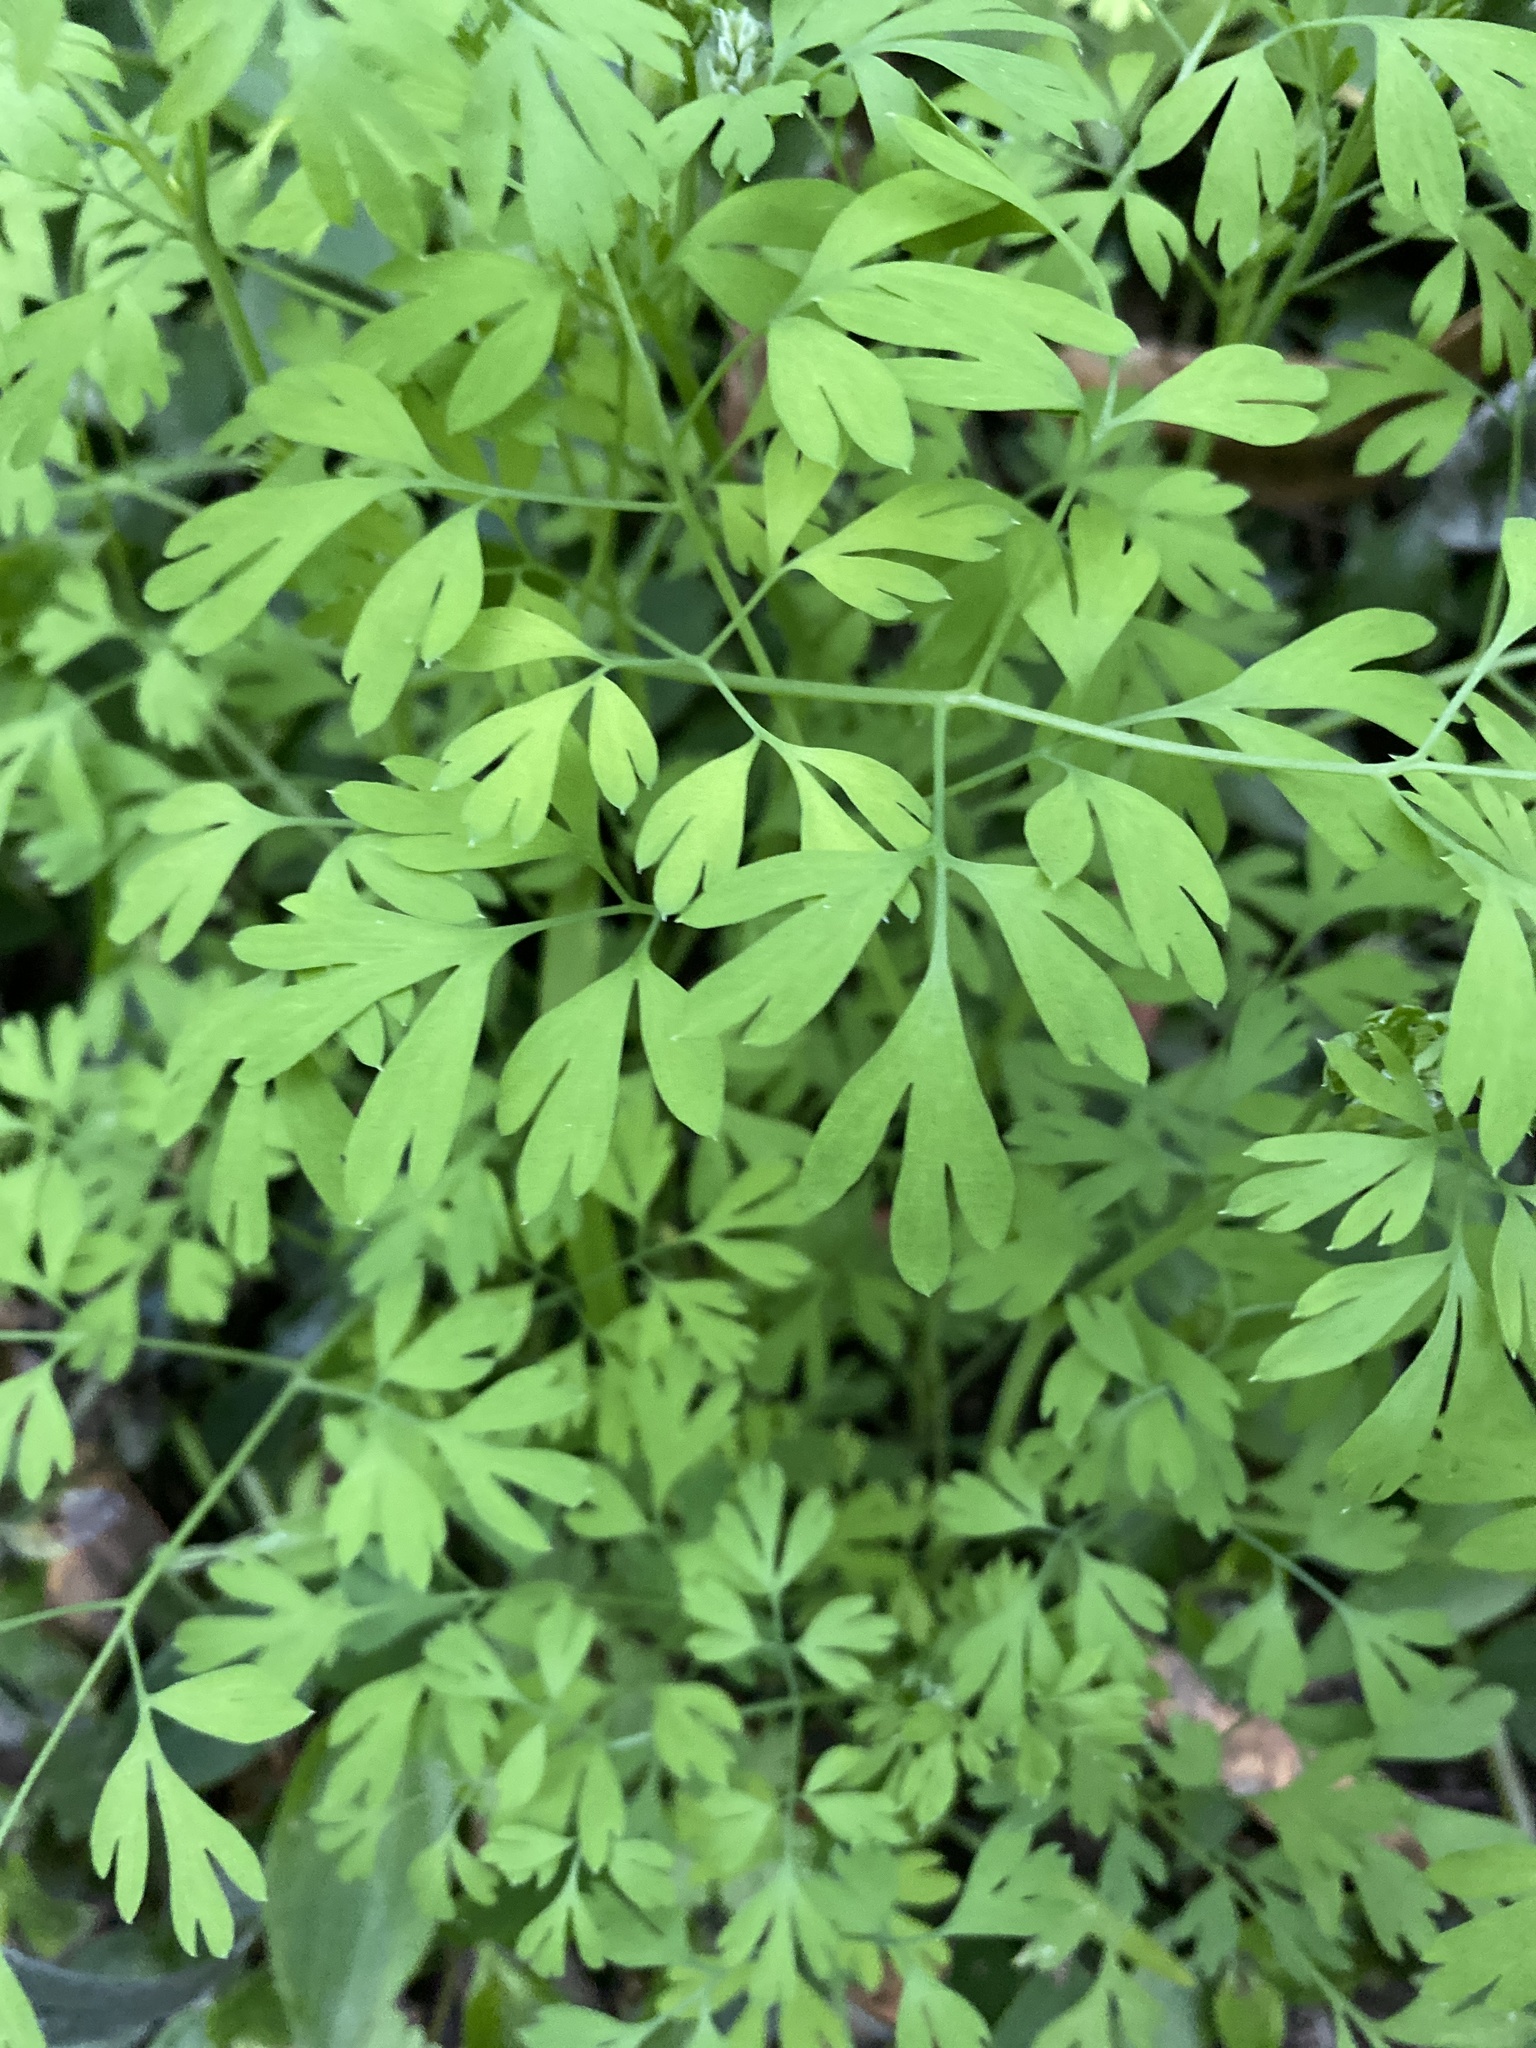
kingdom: Plantae
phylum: Tracheophyta
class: Magnoliopsida
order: Ranunculales
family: Papaveraceae
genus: Fumaria
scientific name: Fumaria
